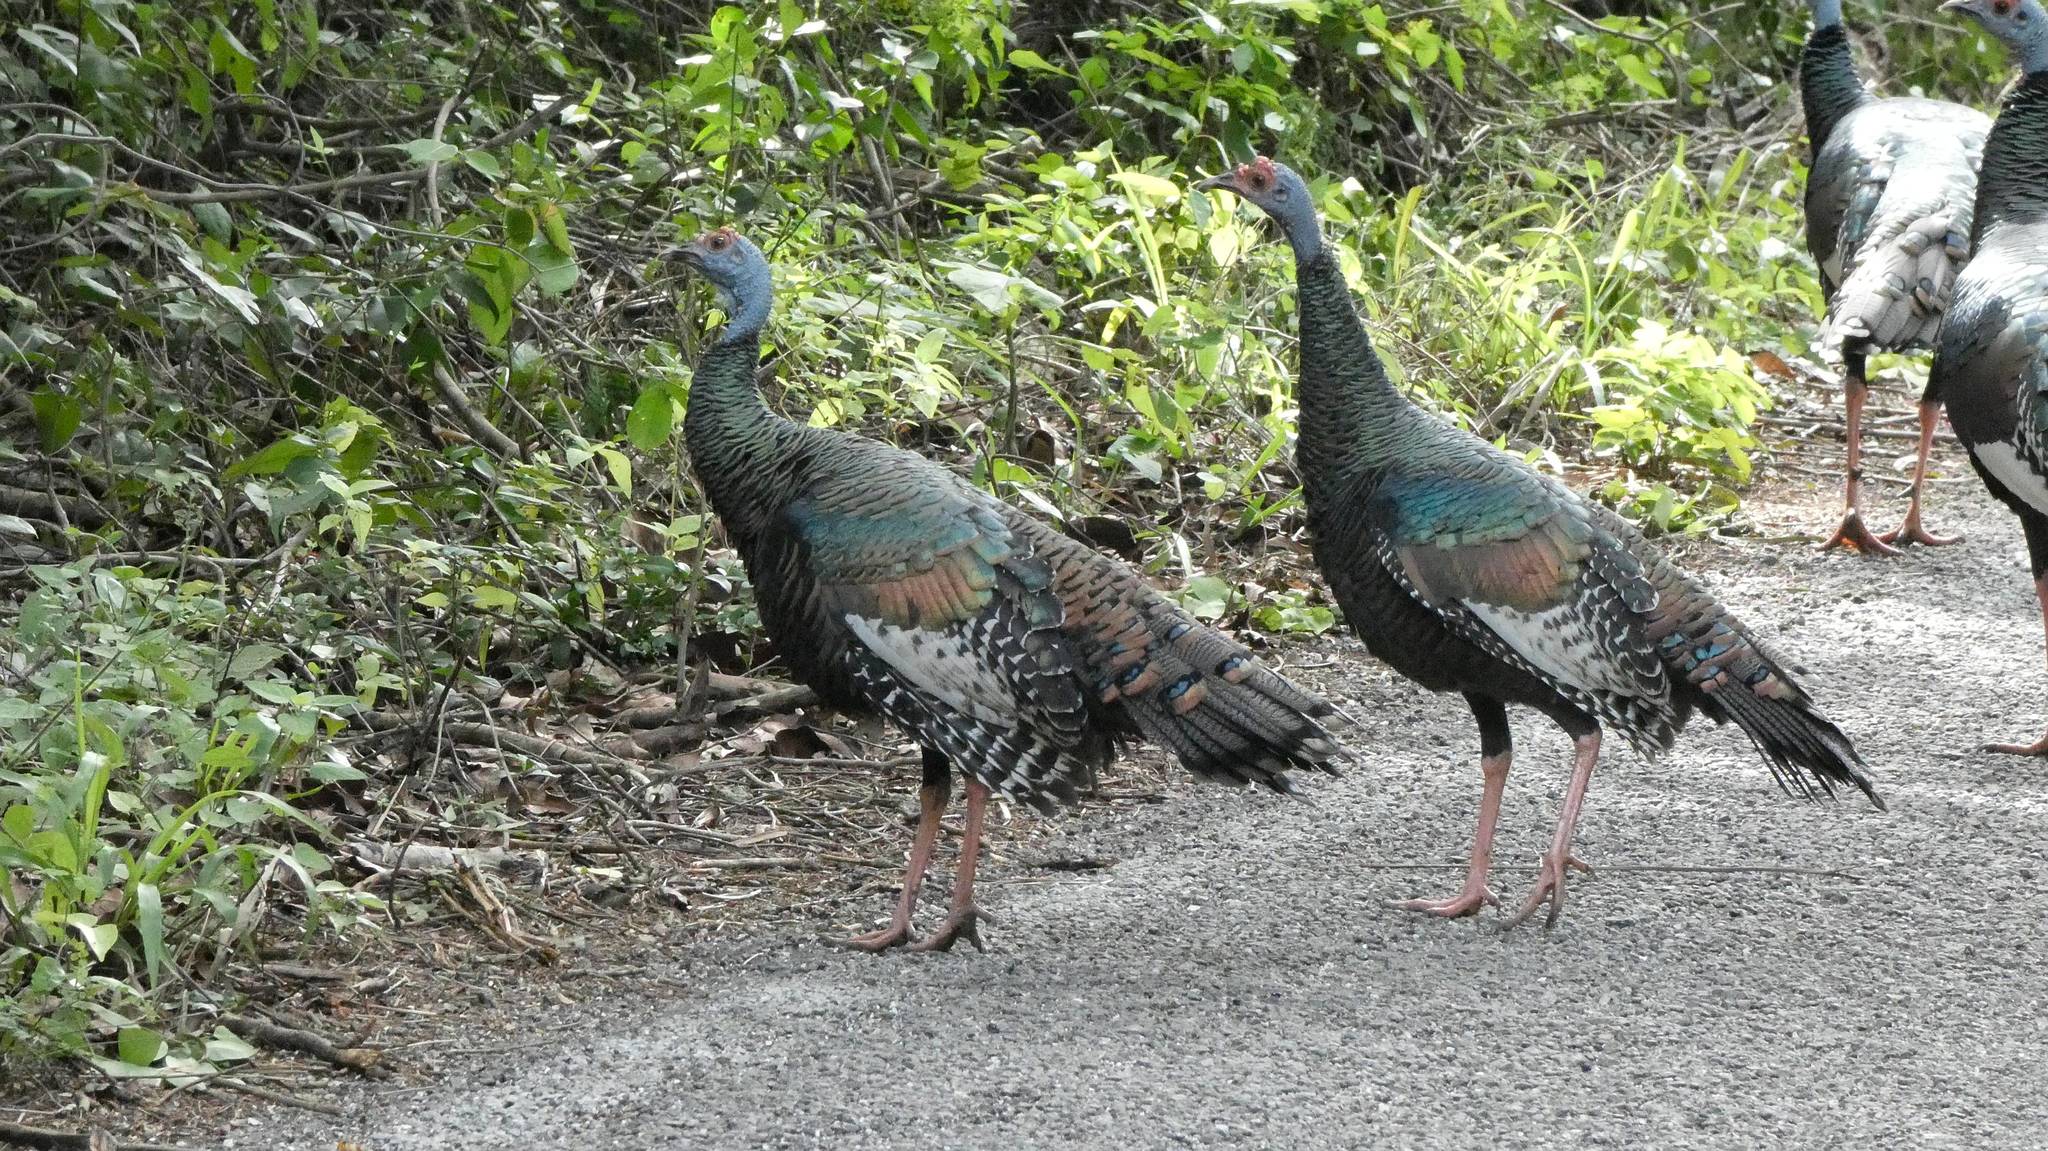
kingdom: Animalia
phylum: Chordata
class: Aves
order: Galliformes
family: Phasianidae
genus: Meleagris
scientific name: Meleagris ocellata
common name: Ocellated turkey
